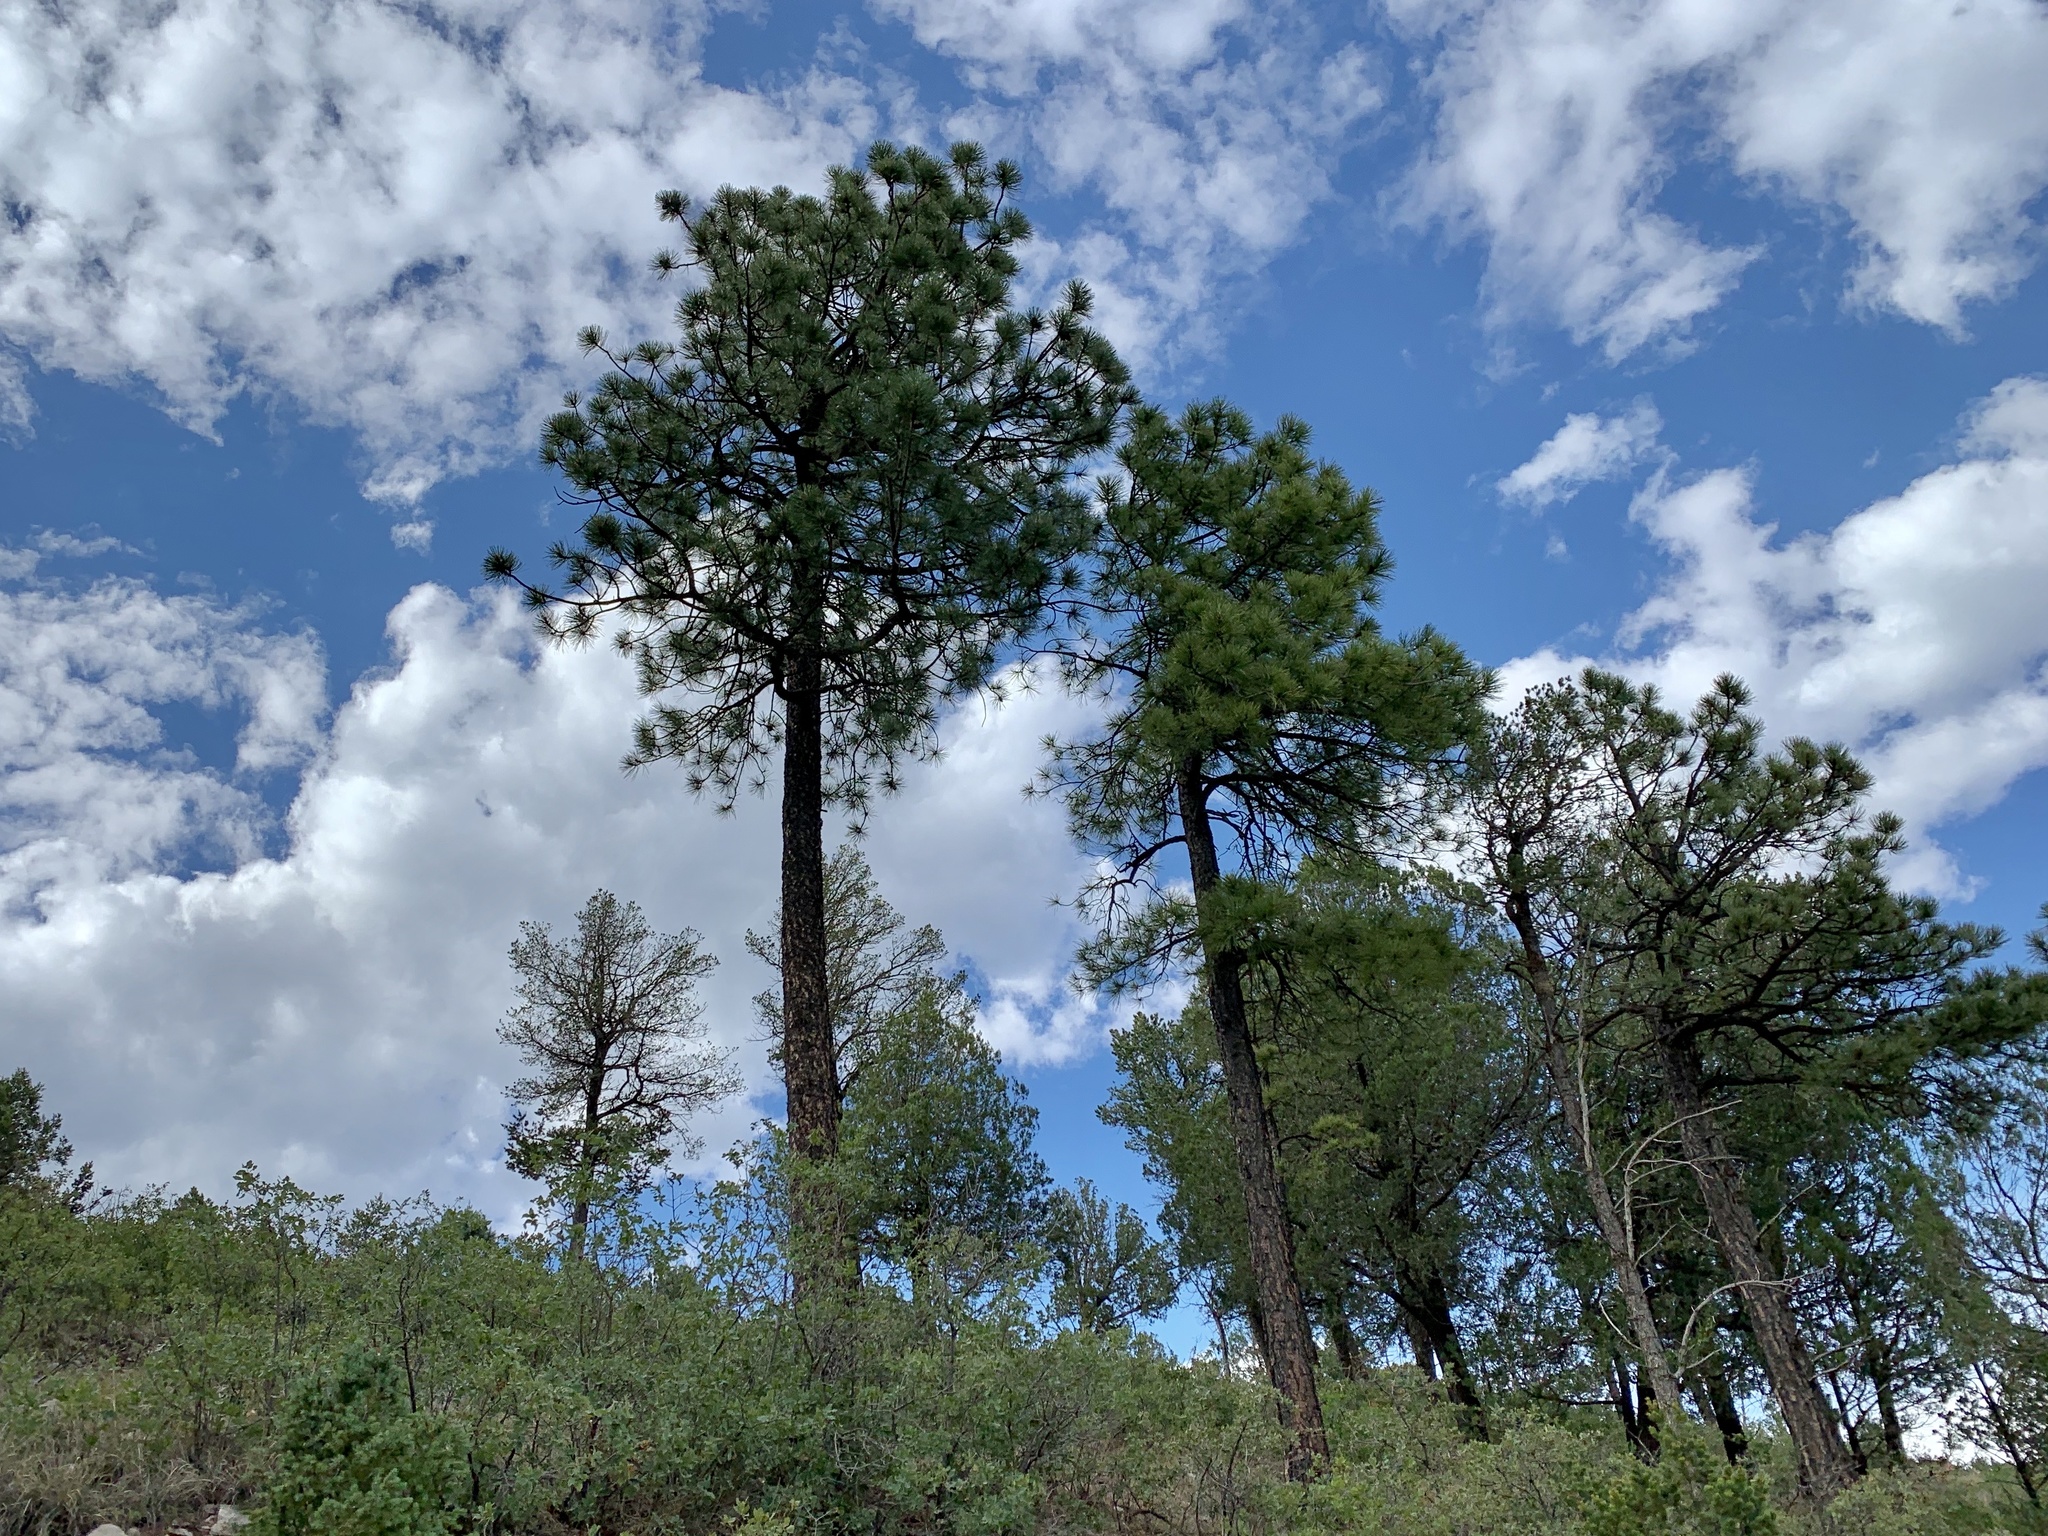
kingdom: Plantae
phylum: Tracheophyta
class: Pinopsida
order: Pinales
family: Pinaceae
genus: Pinus
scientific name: Pinus ponderosa
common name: Western yellow-pine
